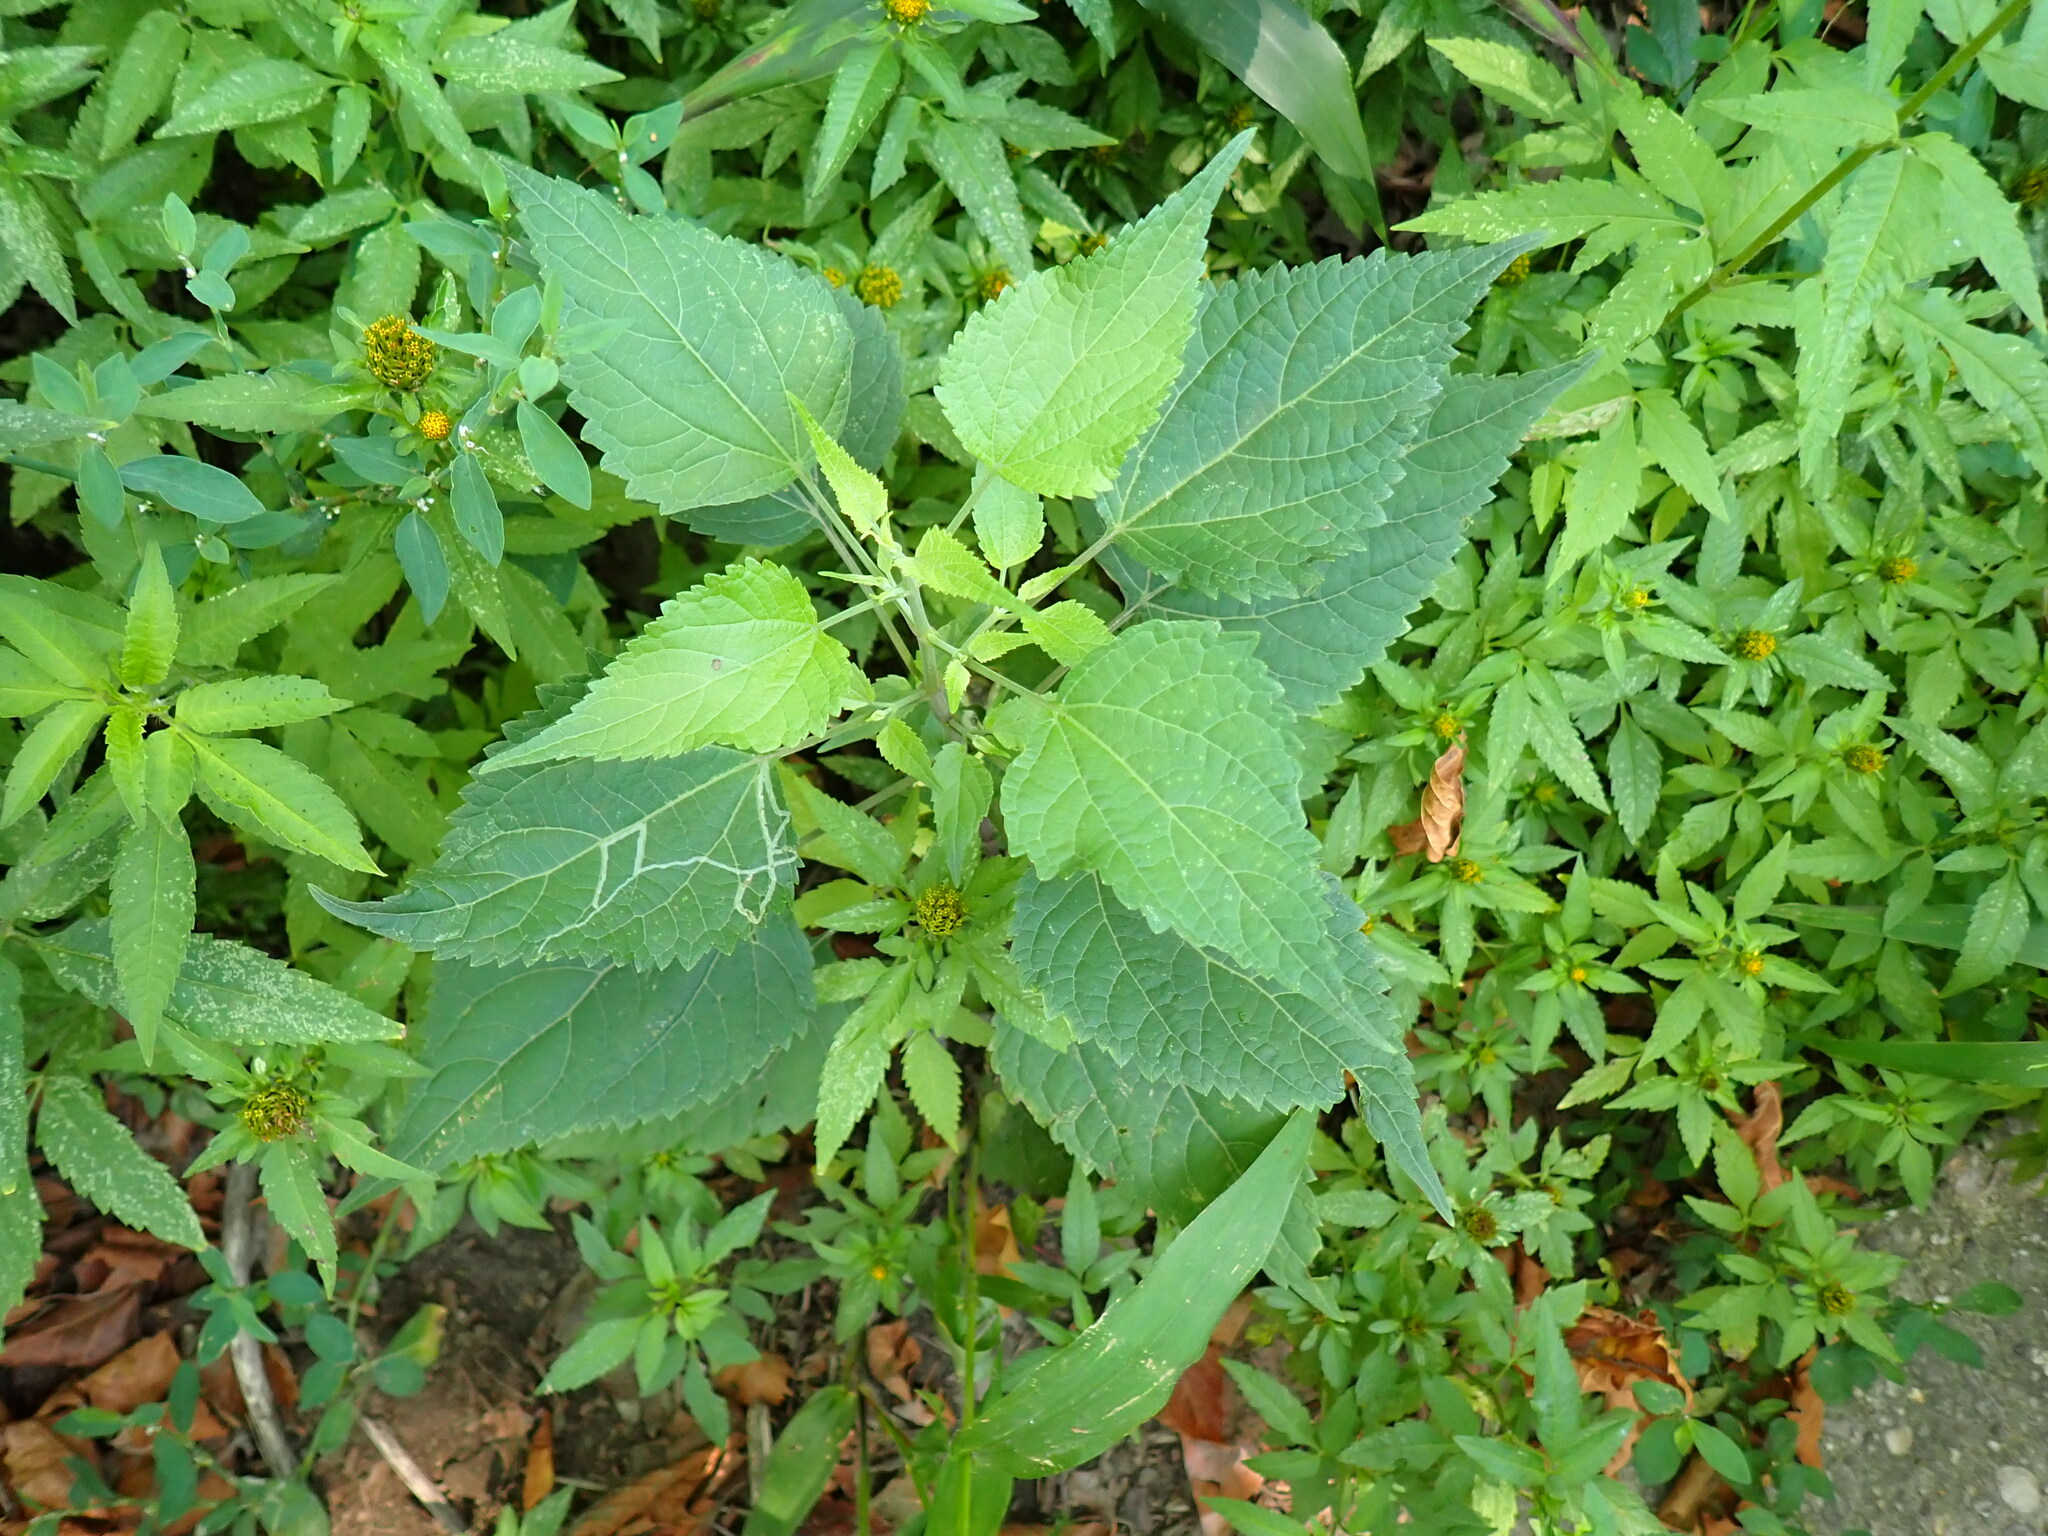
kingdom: Plantae
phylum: Tracheophyta
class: Magnoliopsida
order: Asterales
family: Asteraceae
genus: Ageratina
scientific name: Ageratina altissima
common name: White snakeroot
